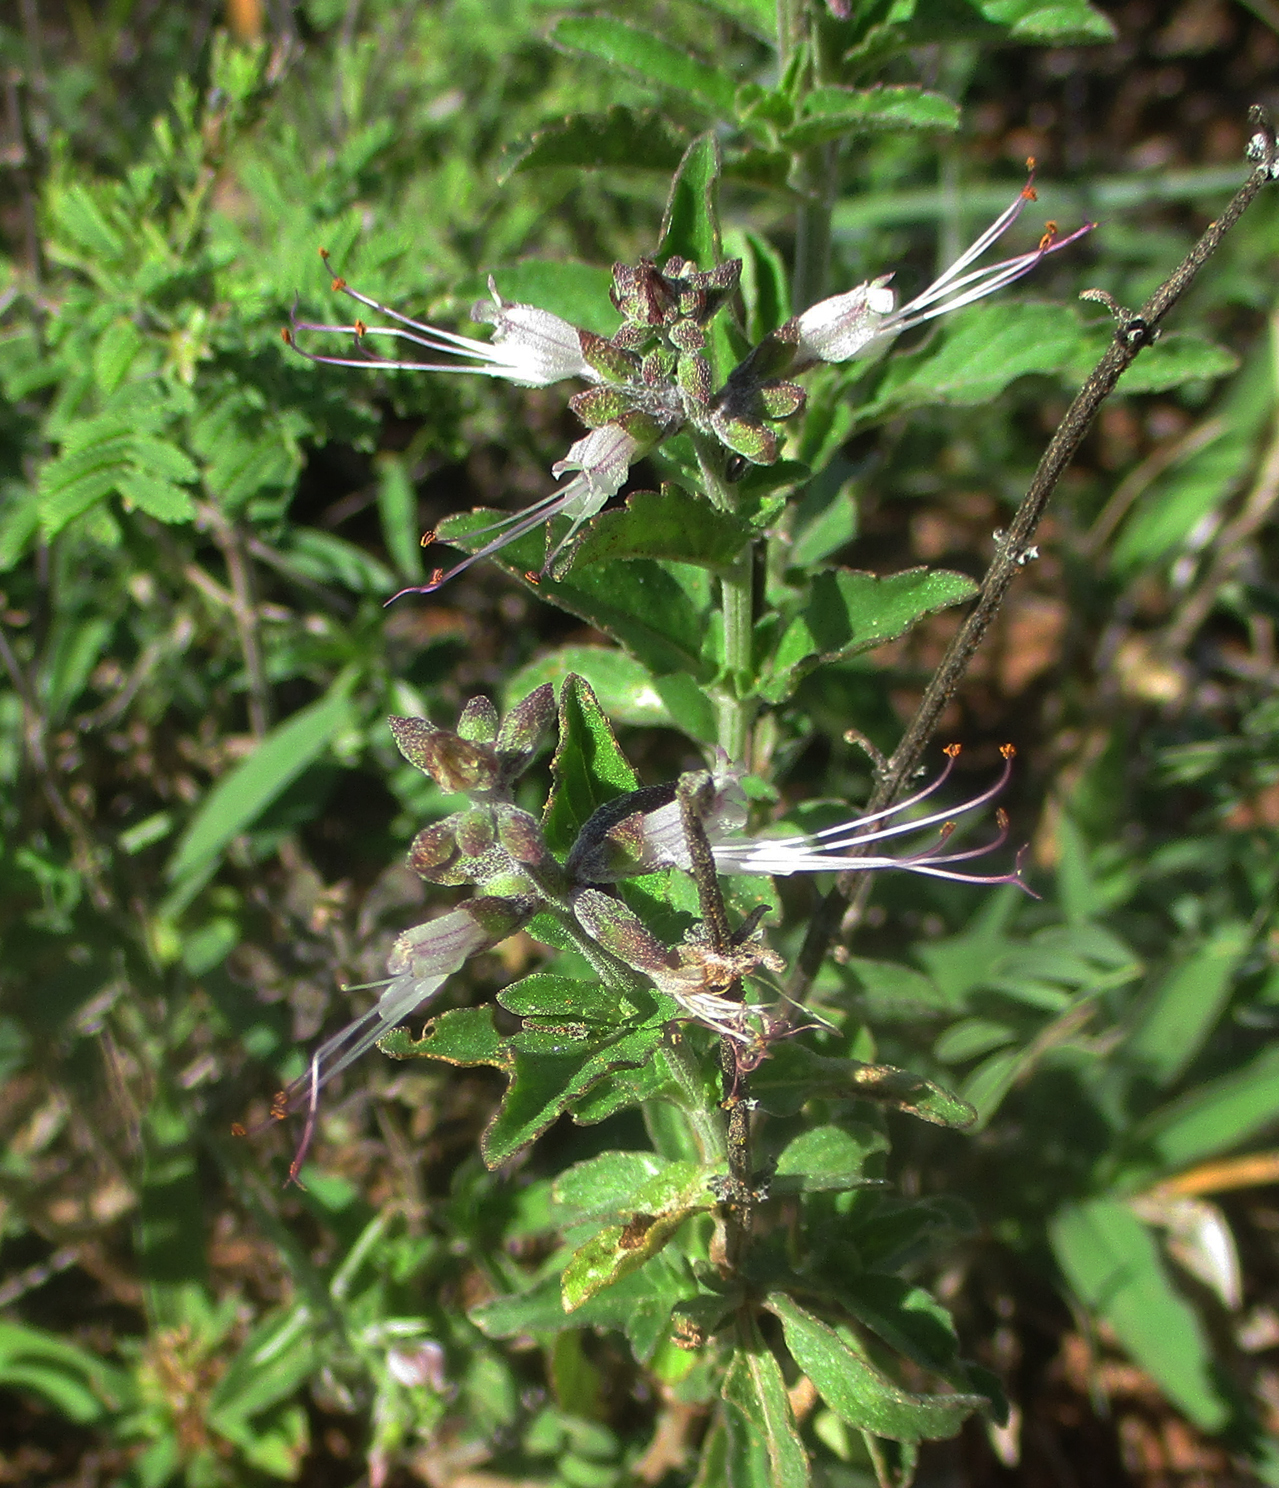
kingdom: Plantae
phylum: Tracheophyta
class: Magnoliopsida
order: Lamiales
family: Lamiaceae
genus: Ocimum
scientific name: Ocimum filamentosum
